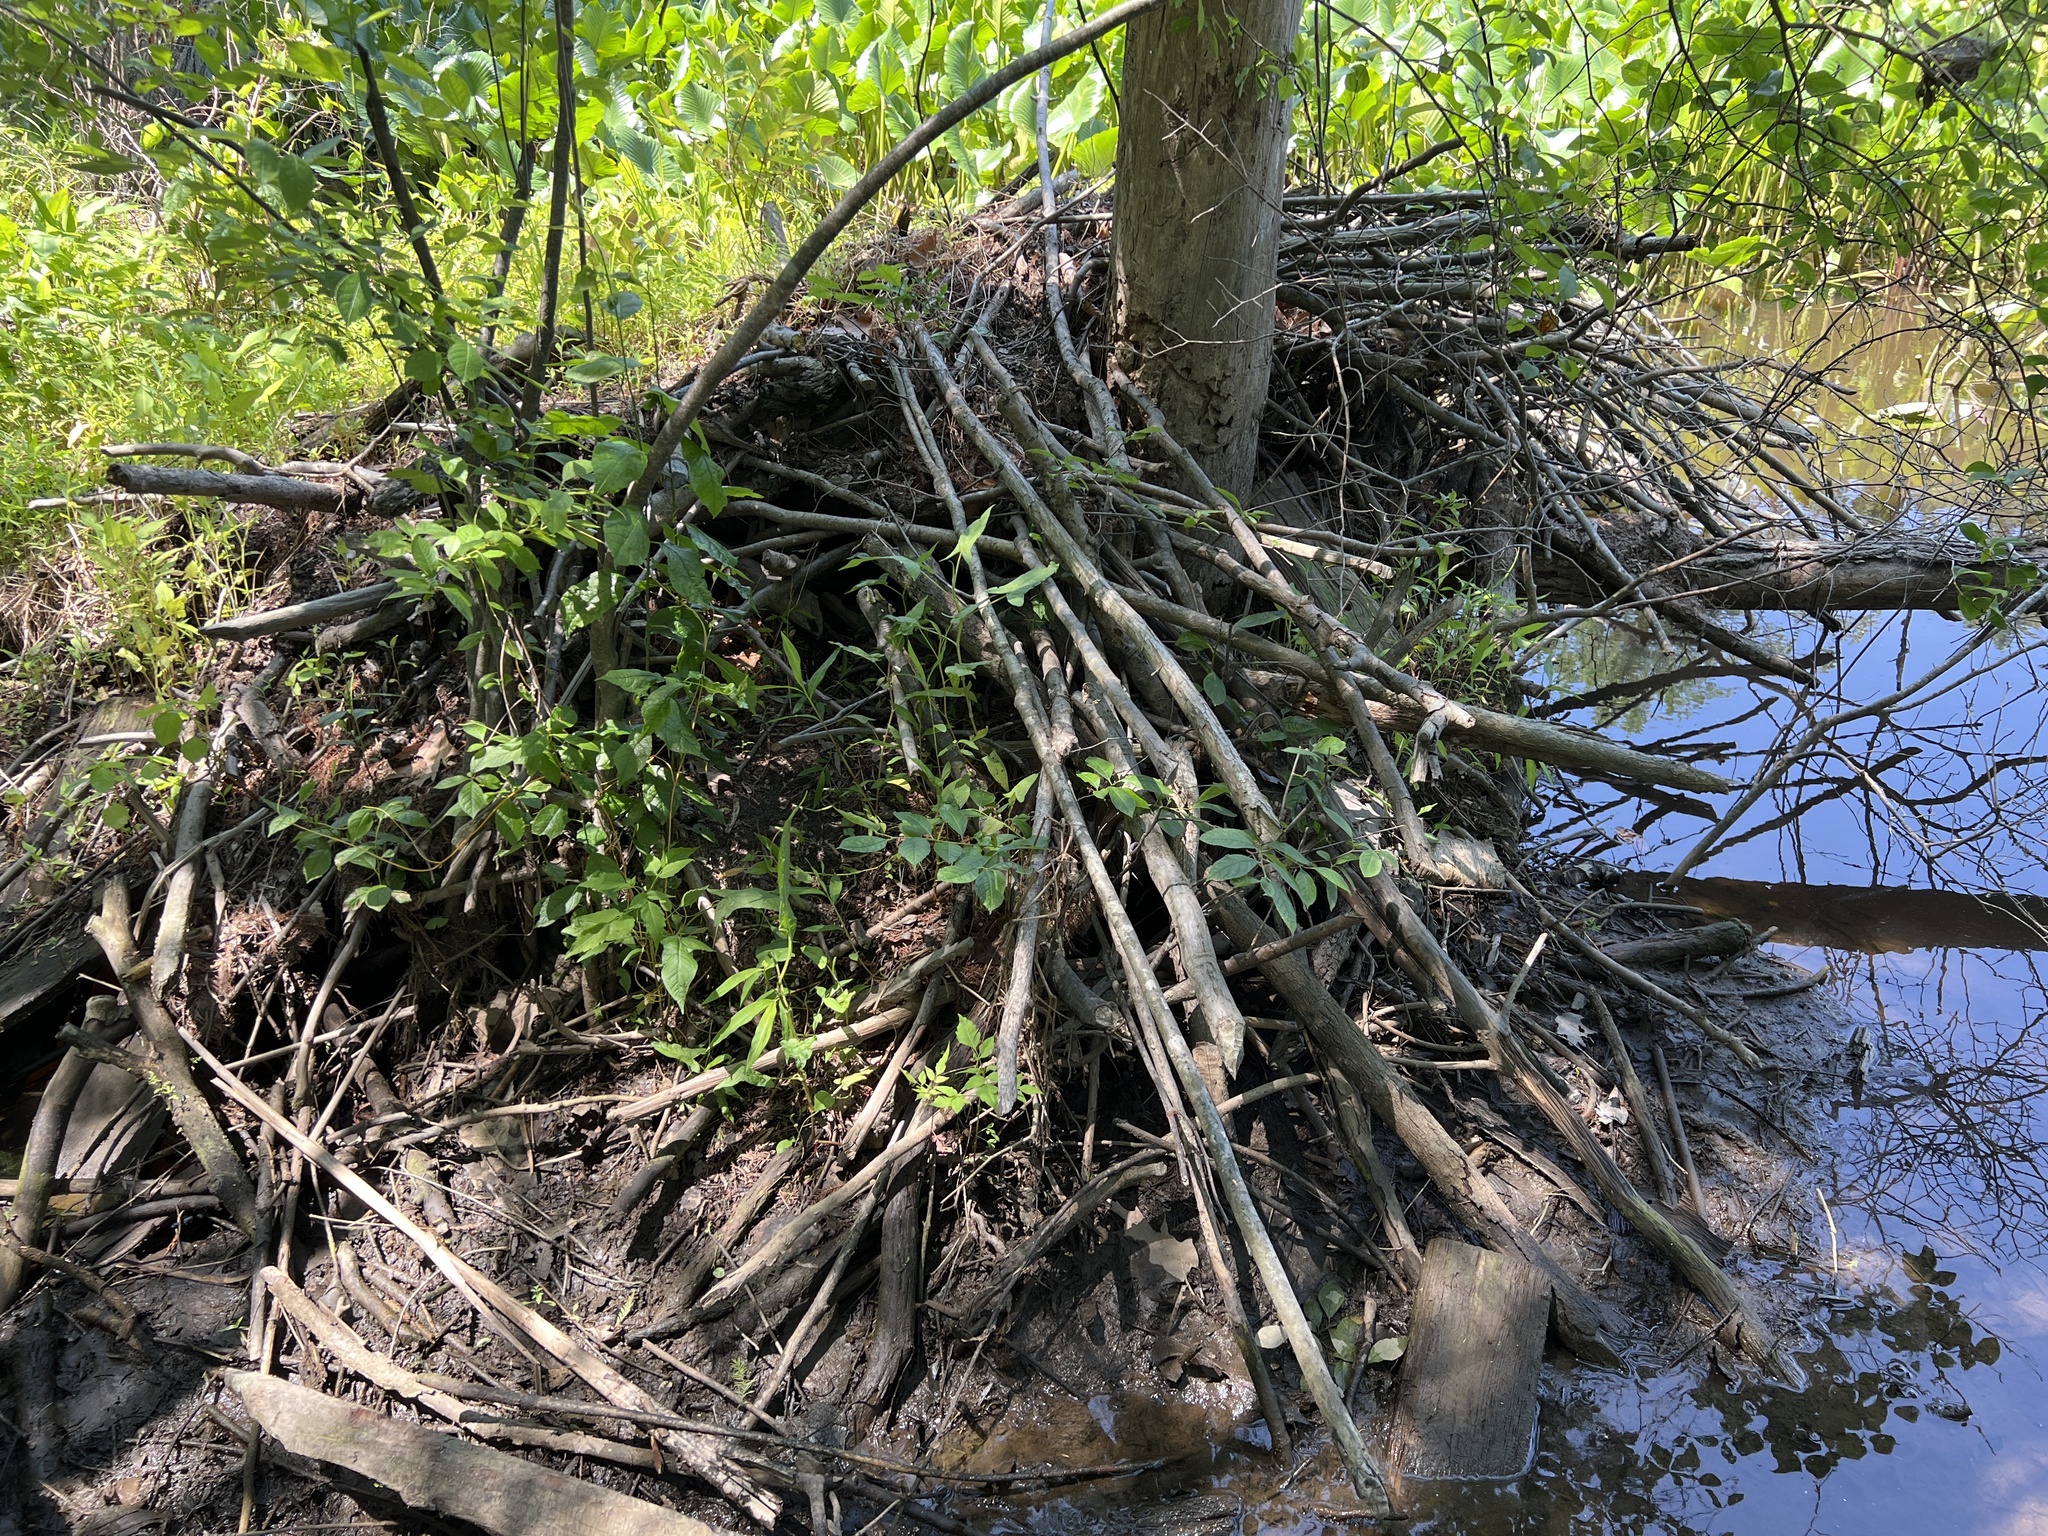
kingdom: Animalia
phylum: Chordata
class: Mammalia
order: Rodentia
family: Castoridae
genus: Castor
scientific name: Castor canadensis
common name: American beaver
